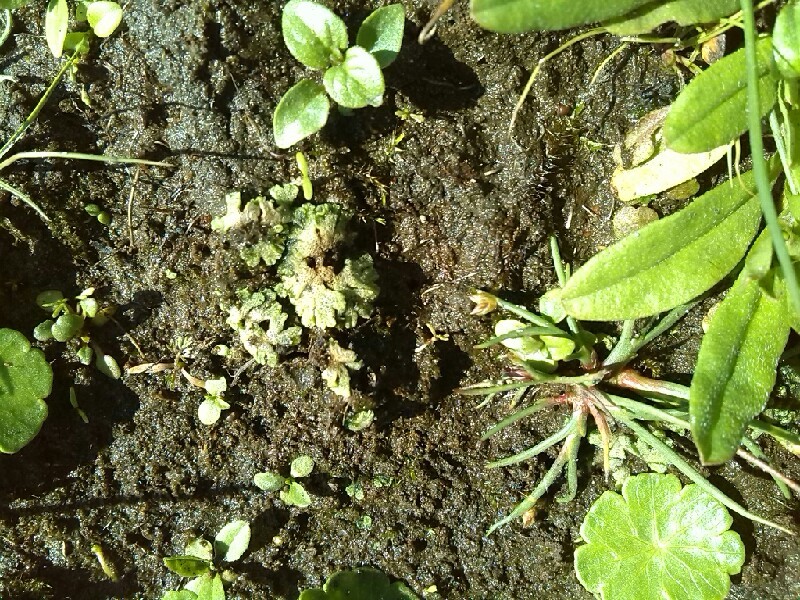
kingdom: Plantae
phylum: Marchantiophyta
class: Marchantiopsida
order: Marchantiales
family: Ricciaceae
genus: Riccia
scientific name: Riccia cavernosa
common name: Cavernous crystalwort
